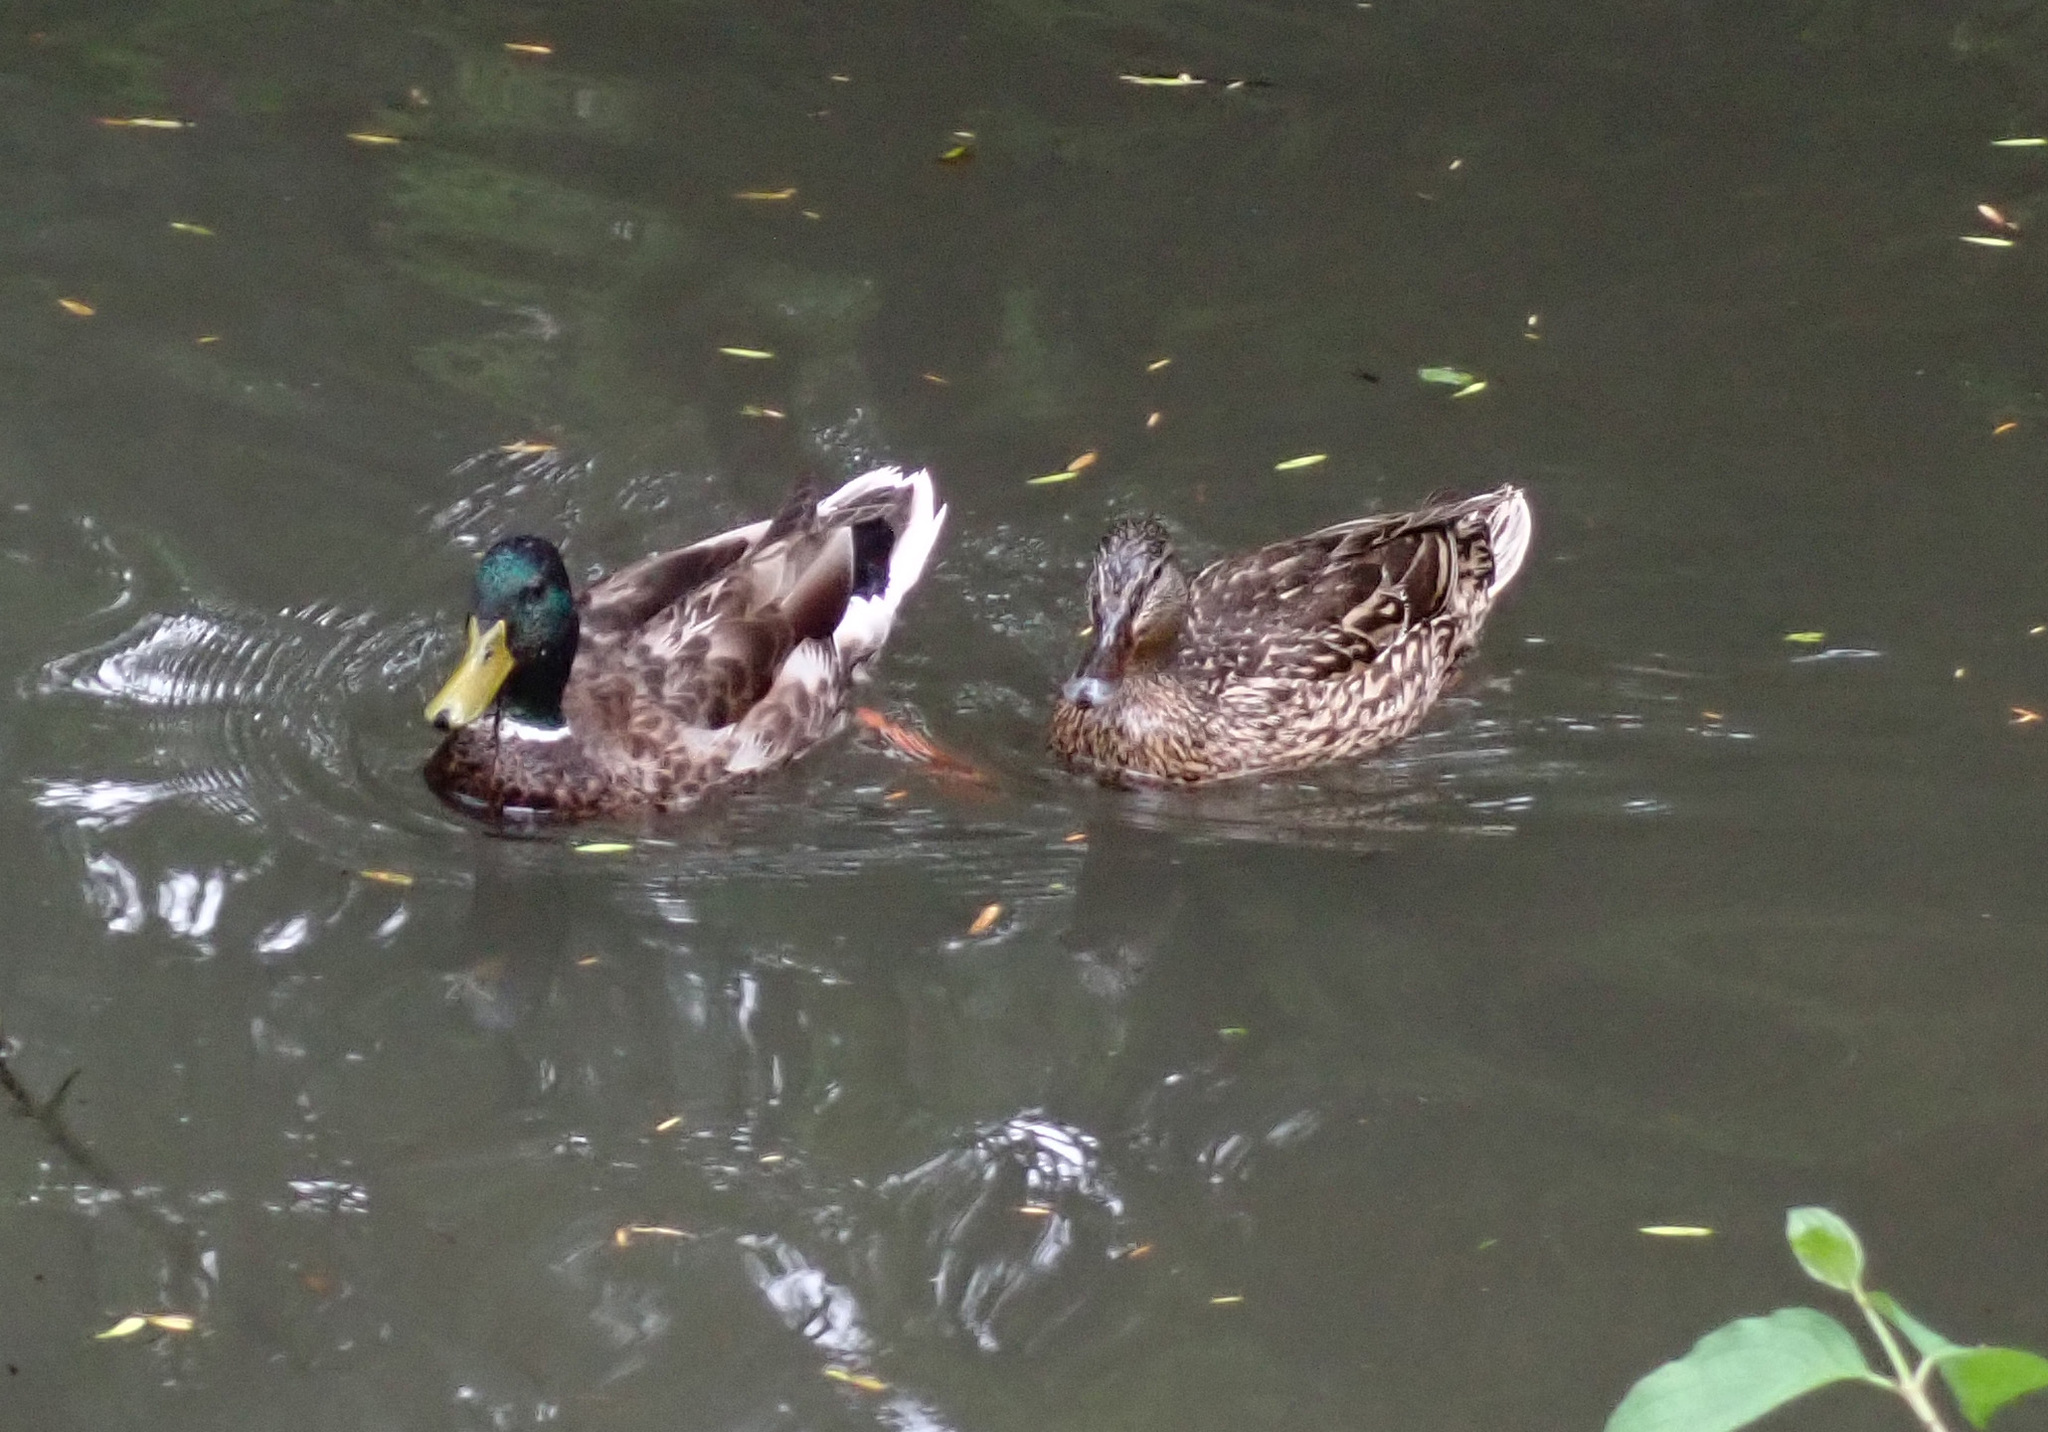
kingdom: Animalia
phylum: Chordata
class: Aves
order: Anseriformes
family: Anatidae
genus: Anas
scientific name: Anas platyrhynchos
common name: Mallard
